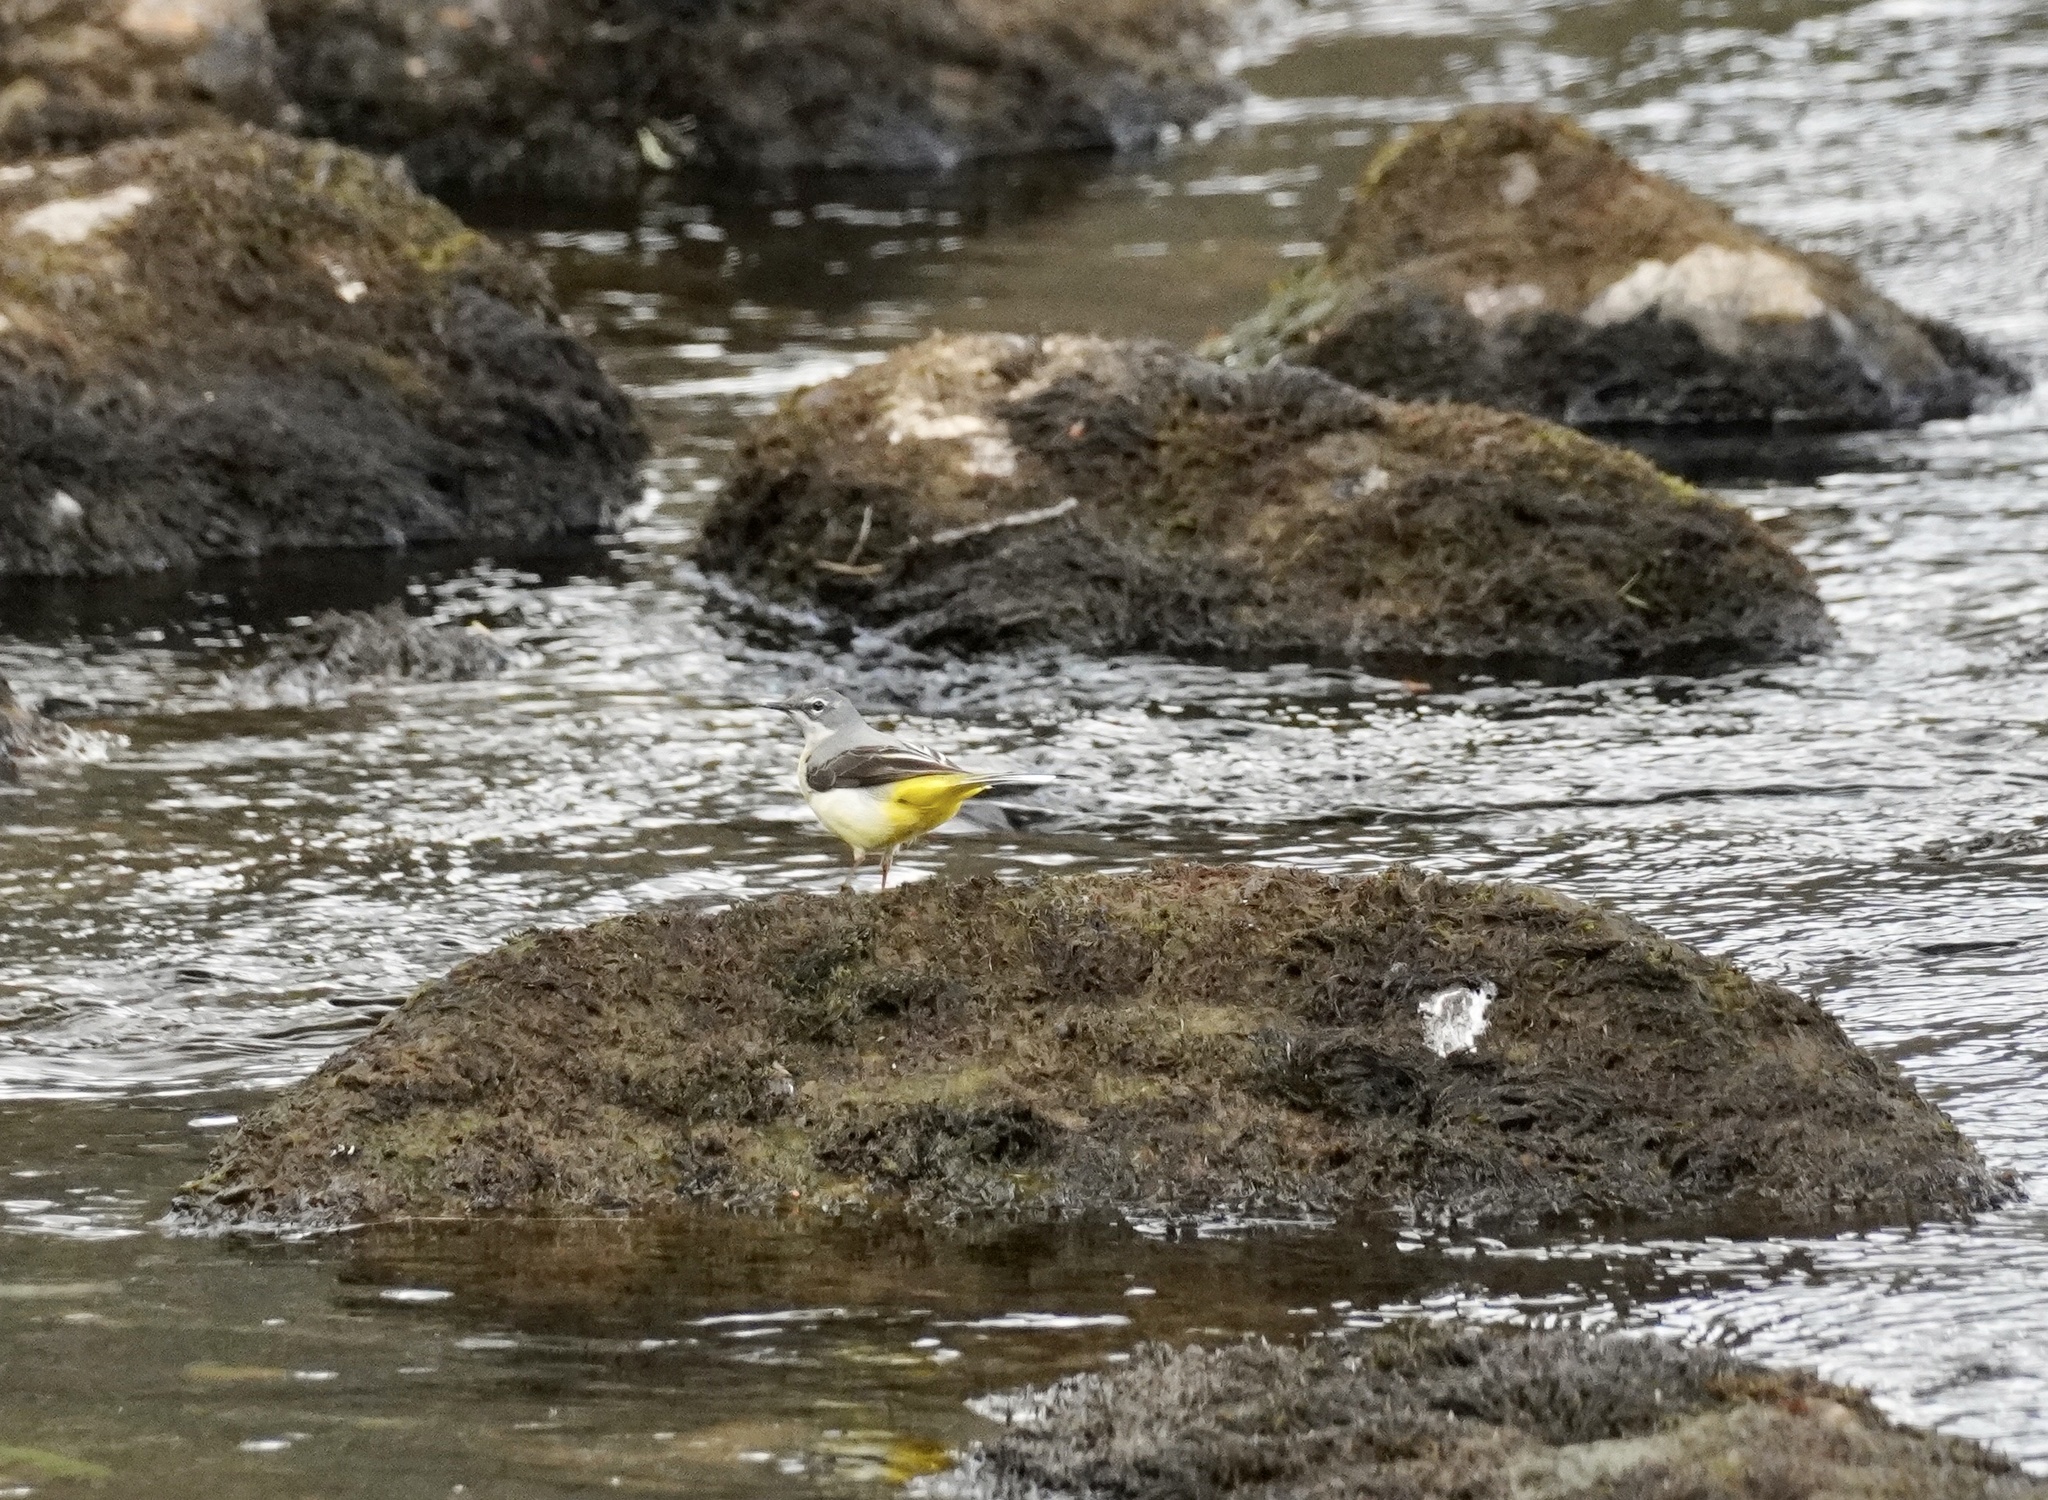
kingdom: Animalia
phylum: Chordata
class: Aves
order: Passeriformes
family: Motacillidae
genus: Motacilla
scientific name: Motacilla cinerea
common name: Grey wagtail
